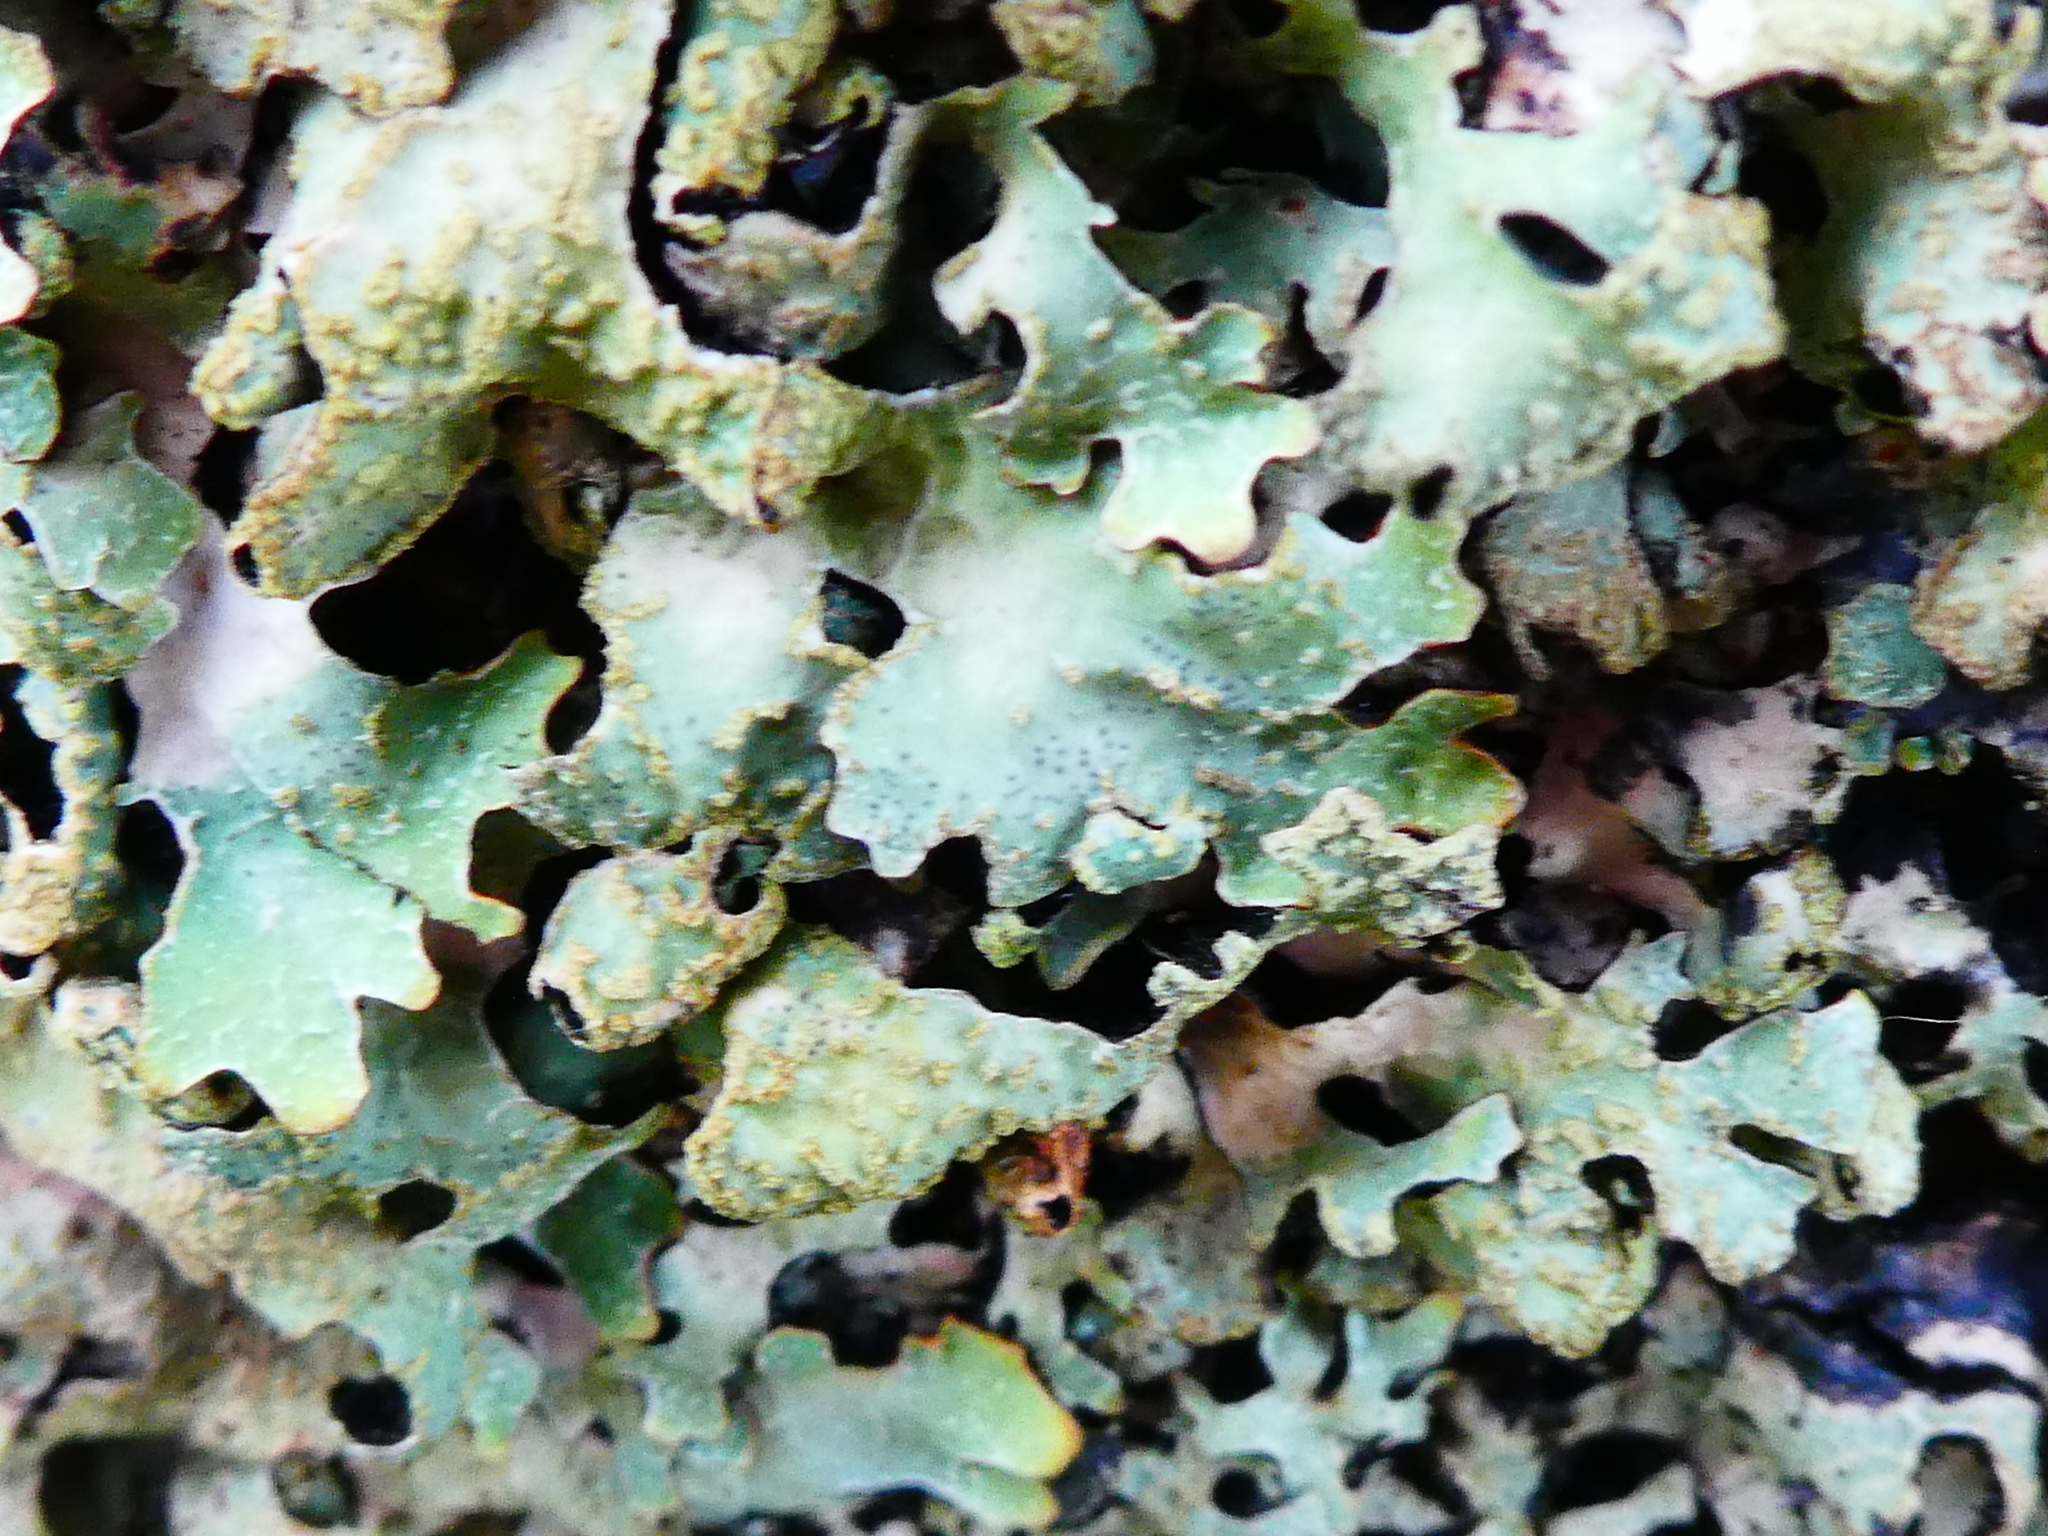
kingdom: Fungi
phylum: Ascomycota
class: Lecanoromycetes
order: Lecanorales
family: Parmeliaceae
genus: Parmelia
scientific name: Parmelia sulcata
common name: Netted shield lichen
